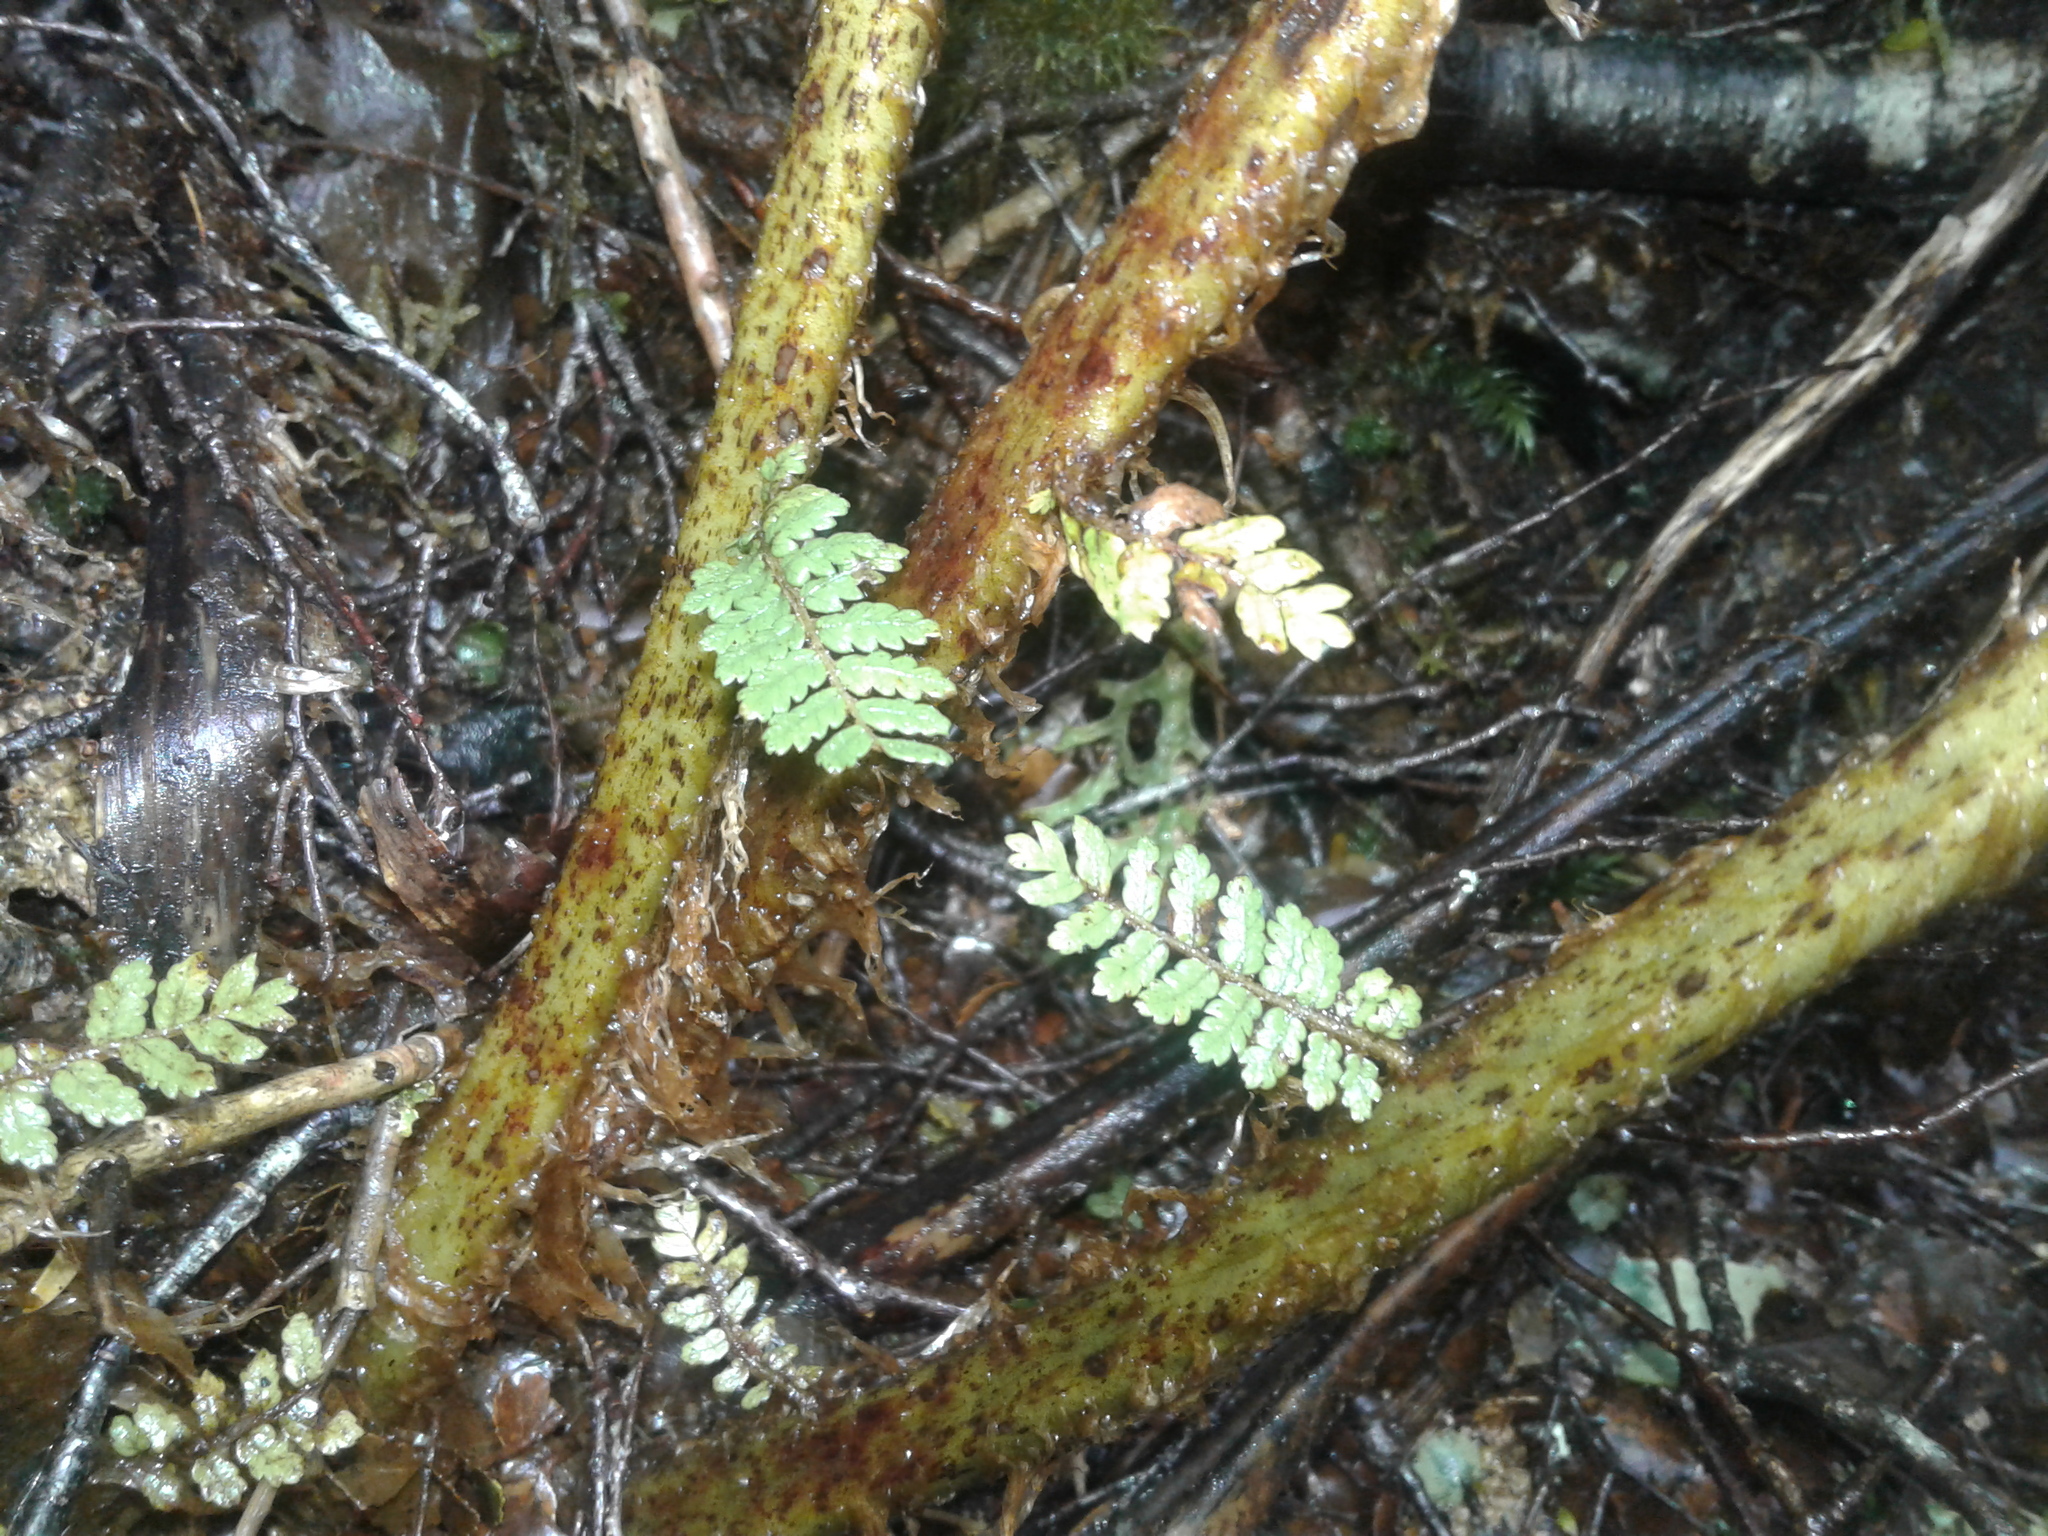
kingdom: Plantae
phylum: Tracheophyta
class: Polypodiopsida
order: Cyatheales
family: Cyatheaceae
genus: Alsophila
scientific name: Alsophila colensoi
